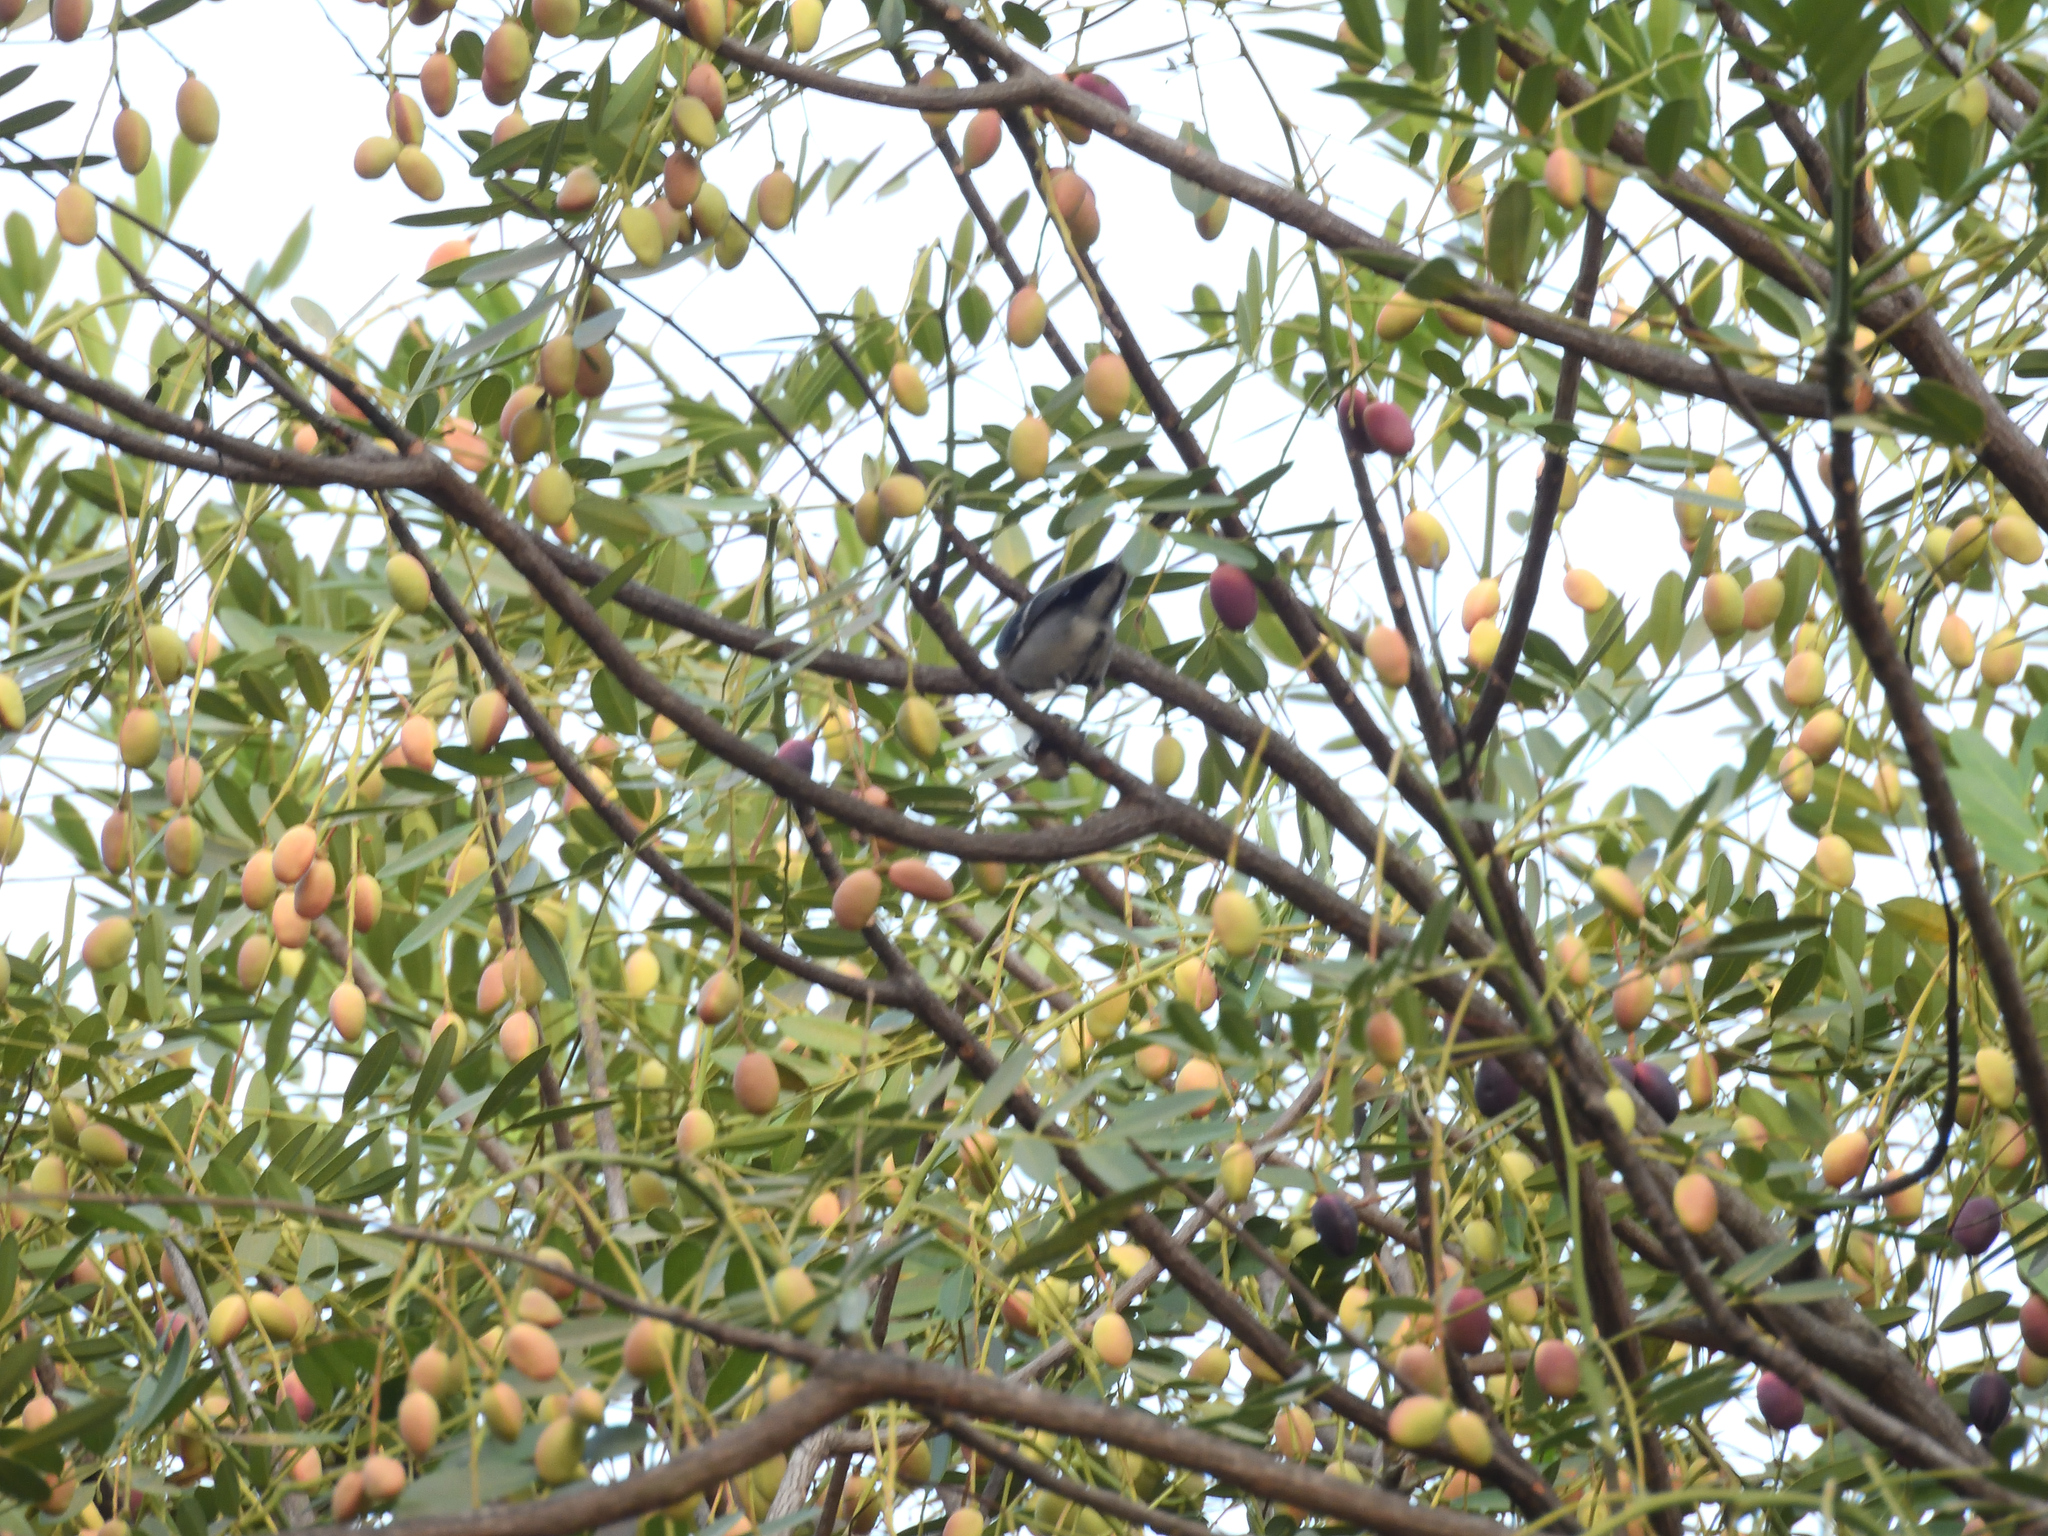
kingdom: Animalia
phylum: Chordata
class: Aves
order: Passeriformes
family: Paridae
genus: Parus
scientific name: Parus cinereus
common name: Cinereous tit
